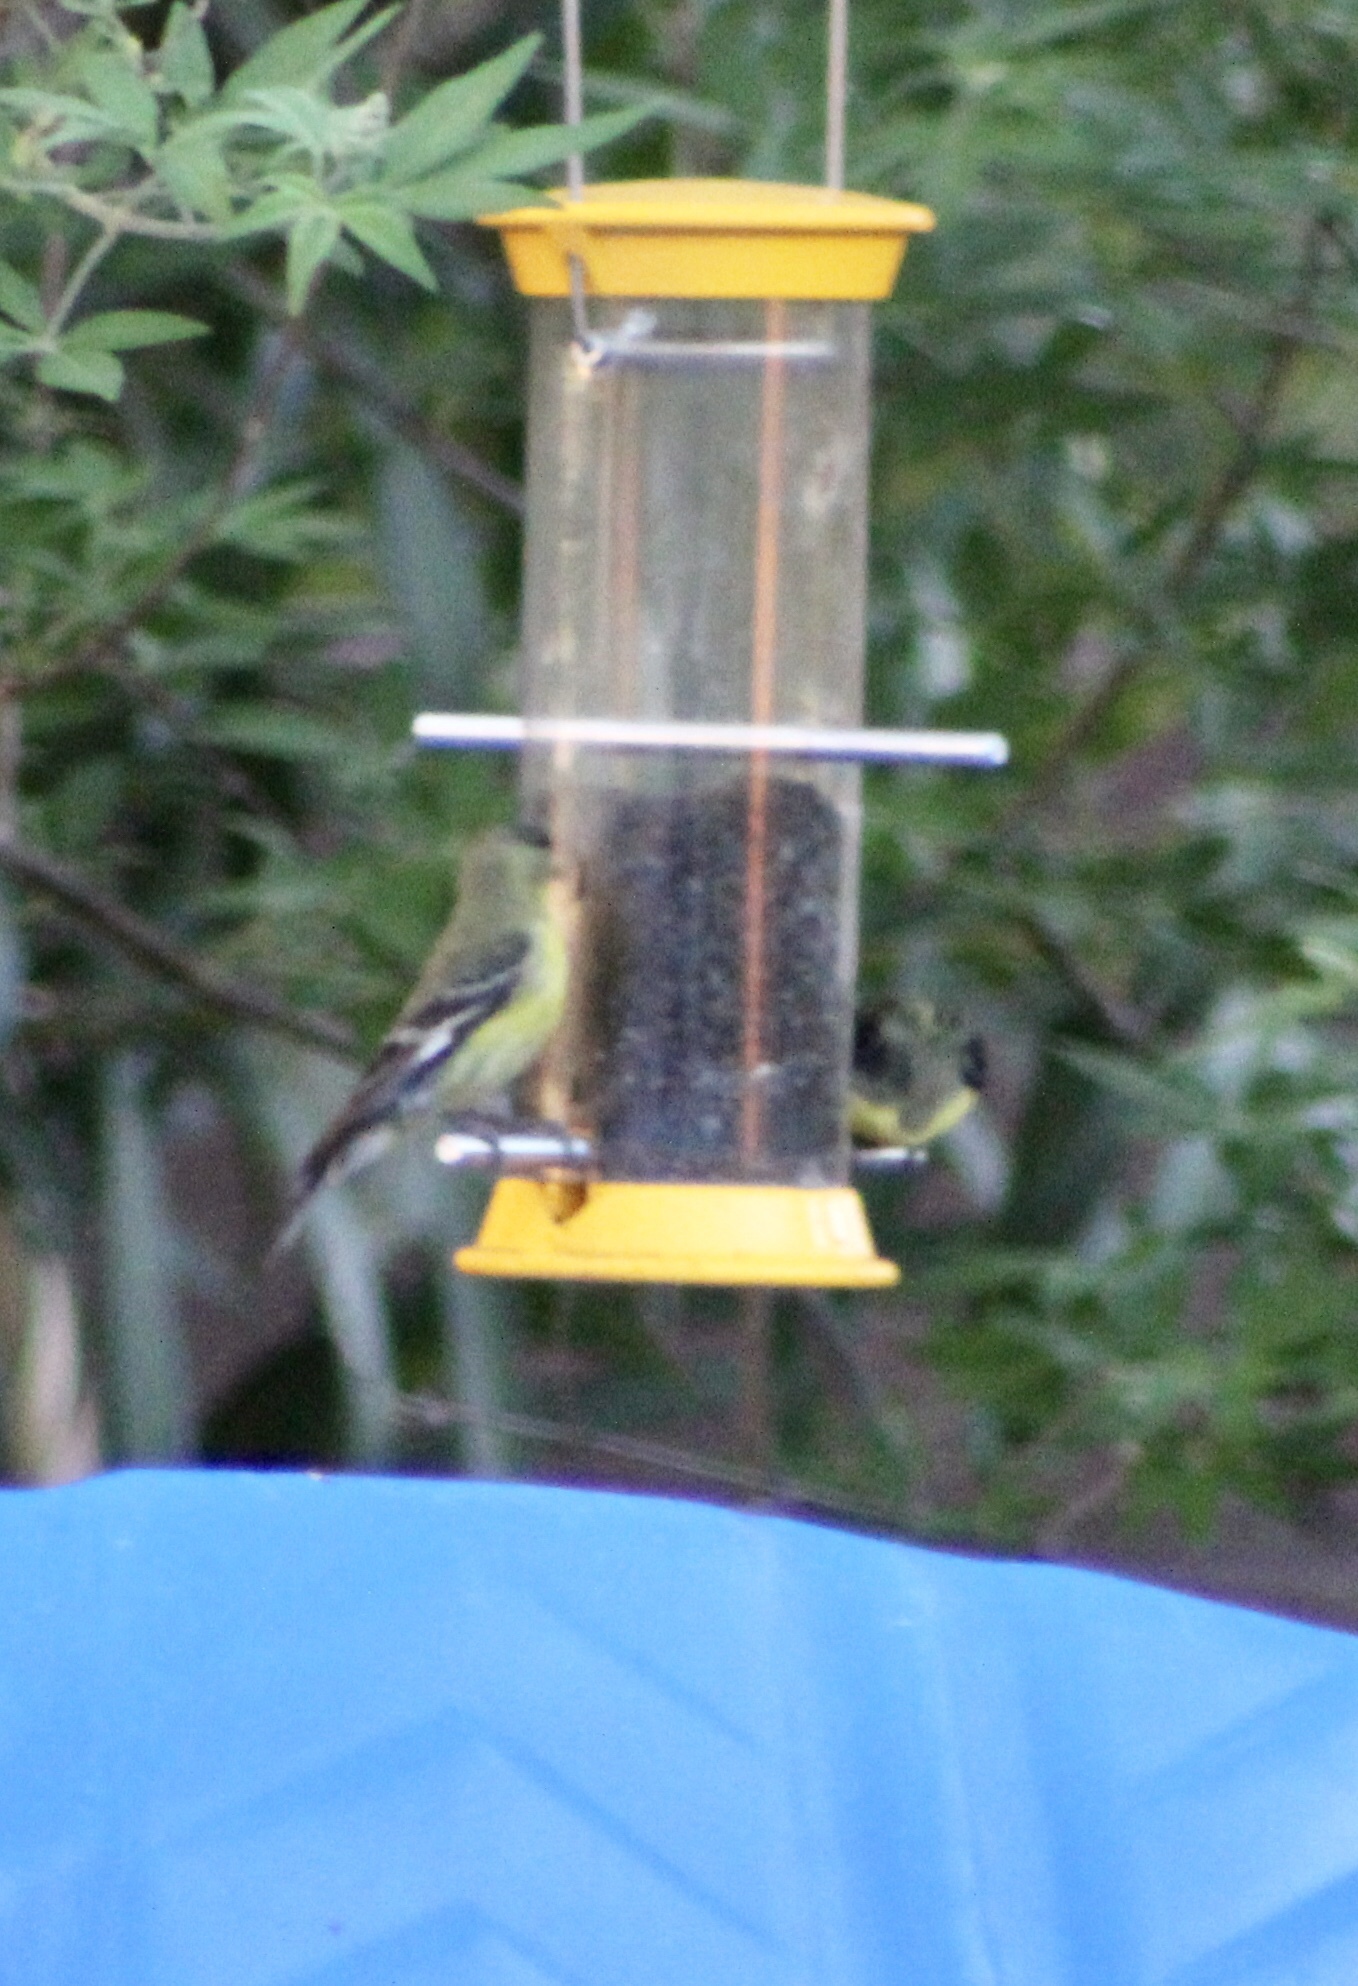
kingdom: Animalia
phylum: Chordata
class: Aves
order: Passeriformes
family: Fringillidae
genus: Spinus
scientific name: Spinus psaltria
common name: Lesser goldfinch
